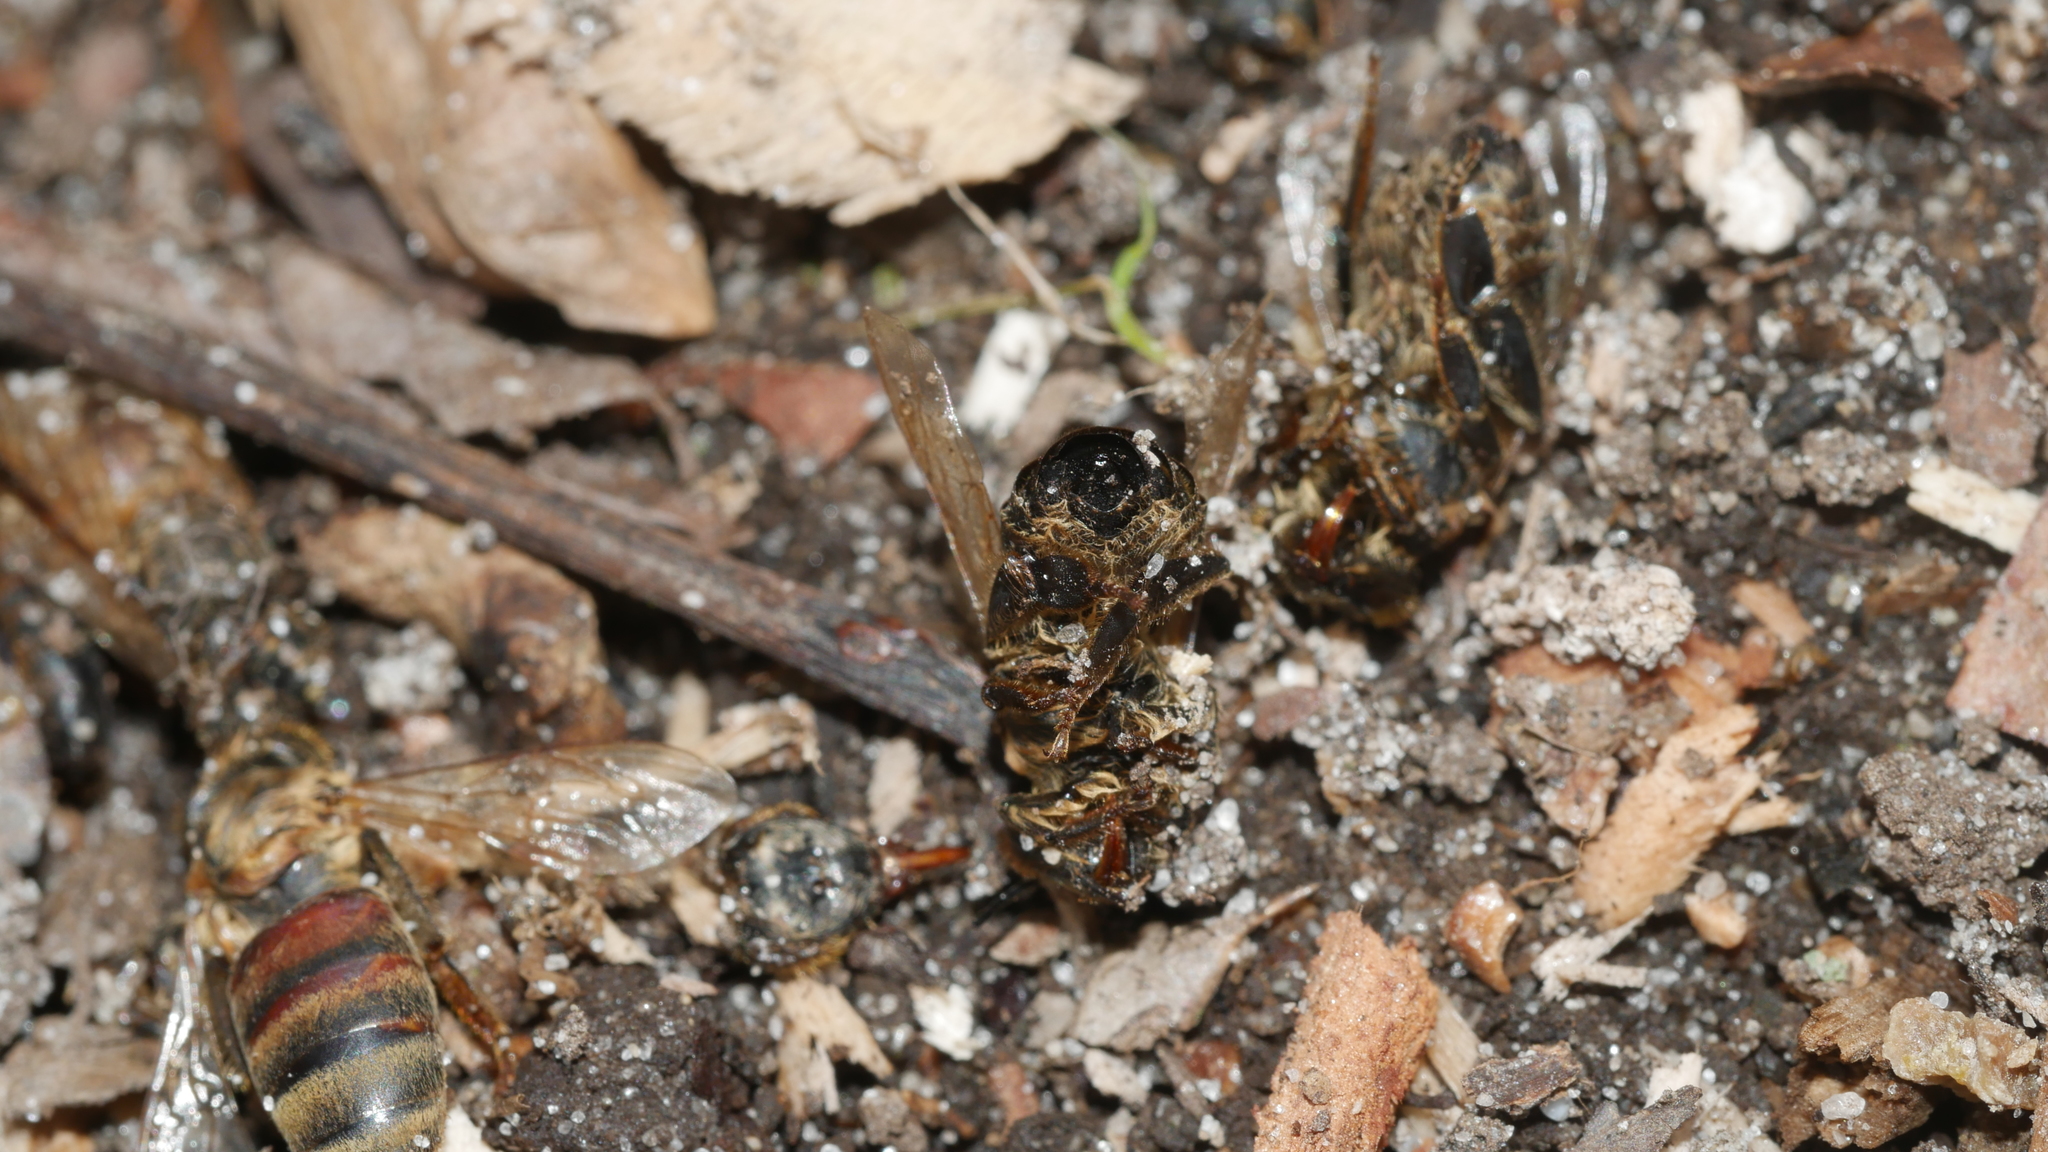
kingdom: Animalia
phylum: Arthropoda
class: Insecta
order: Hymenoptera
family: Apidae
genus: Apis
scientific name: Apis mellifera
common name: Honey bee
